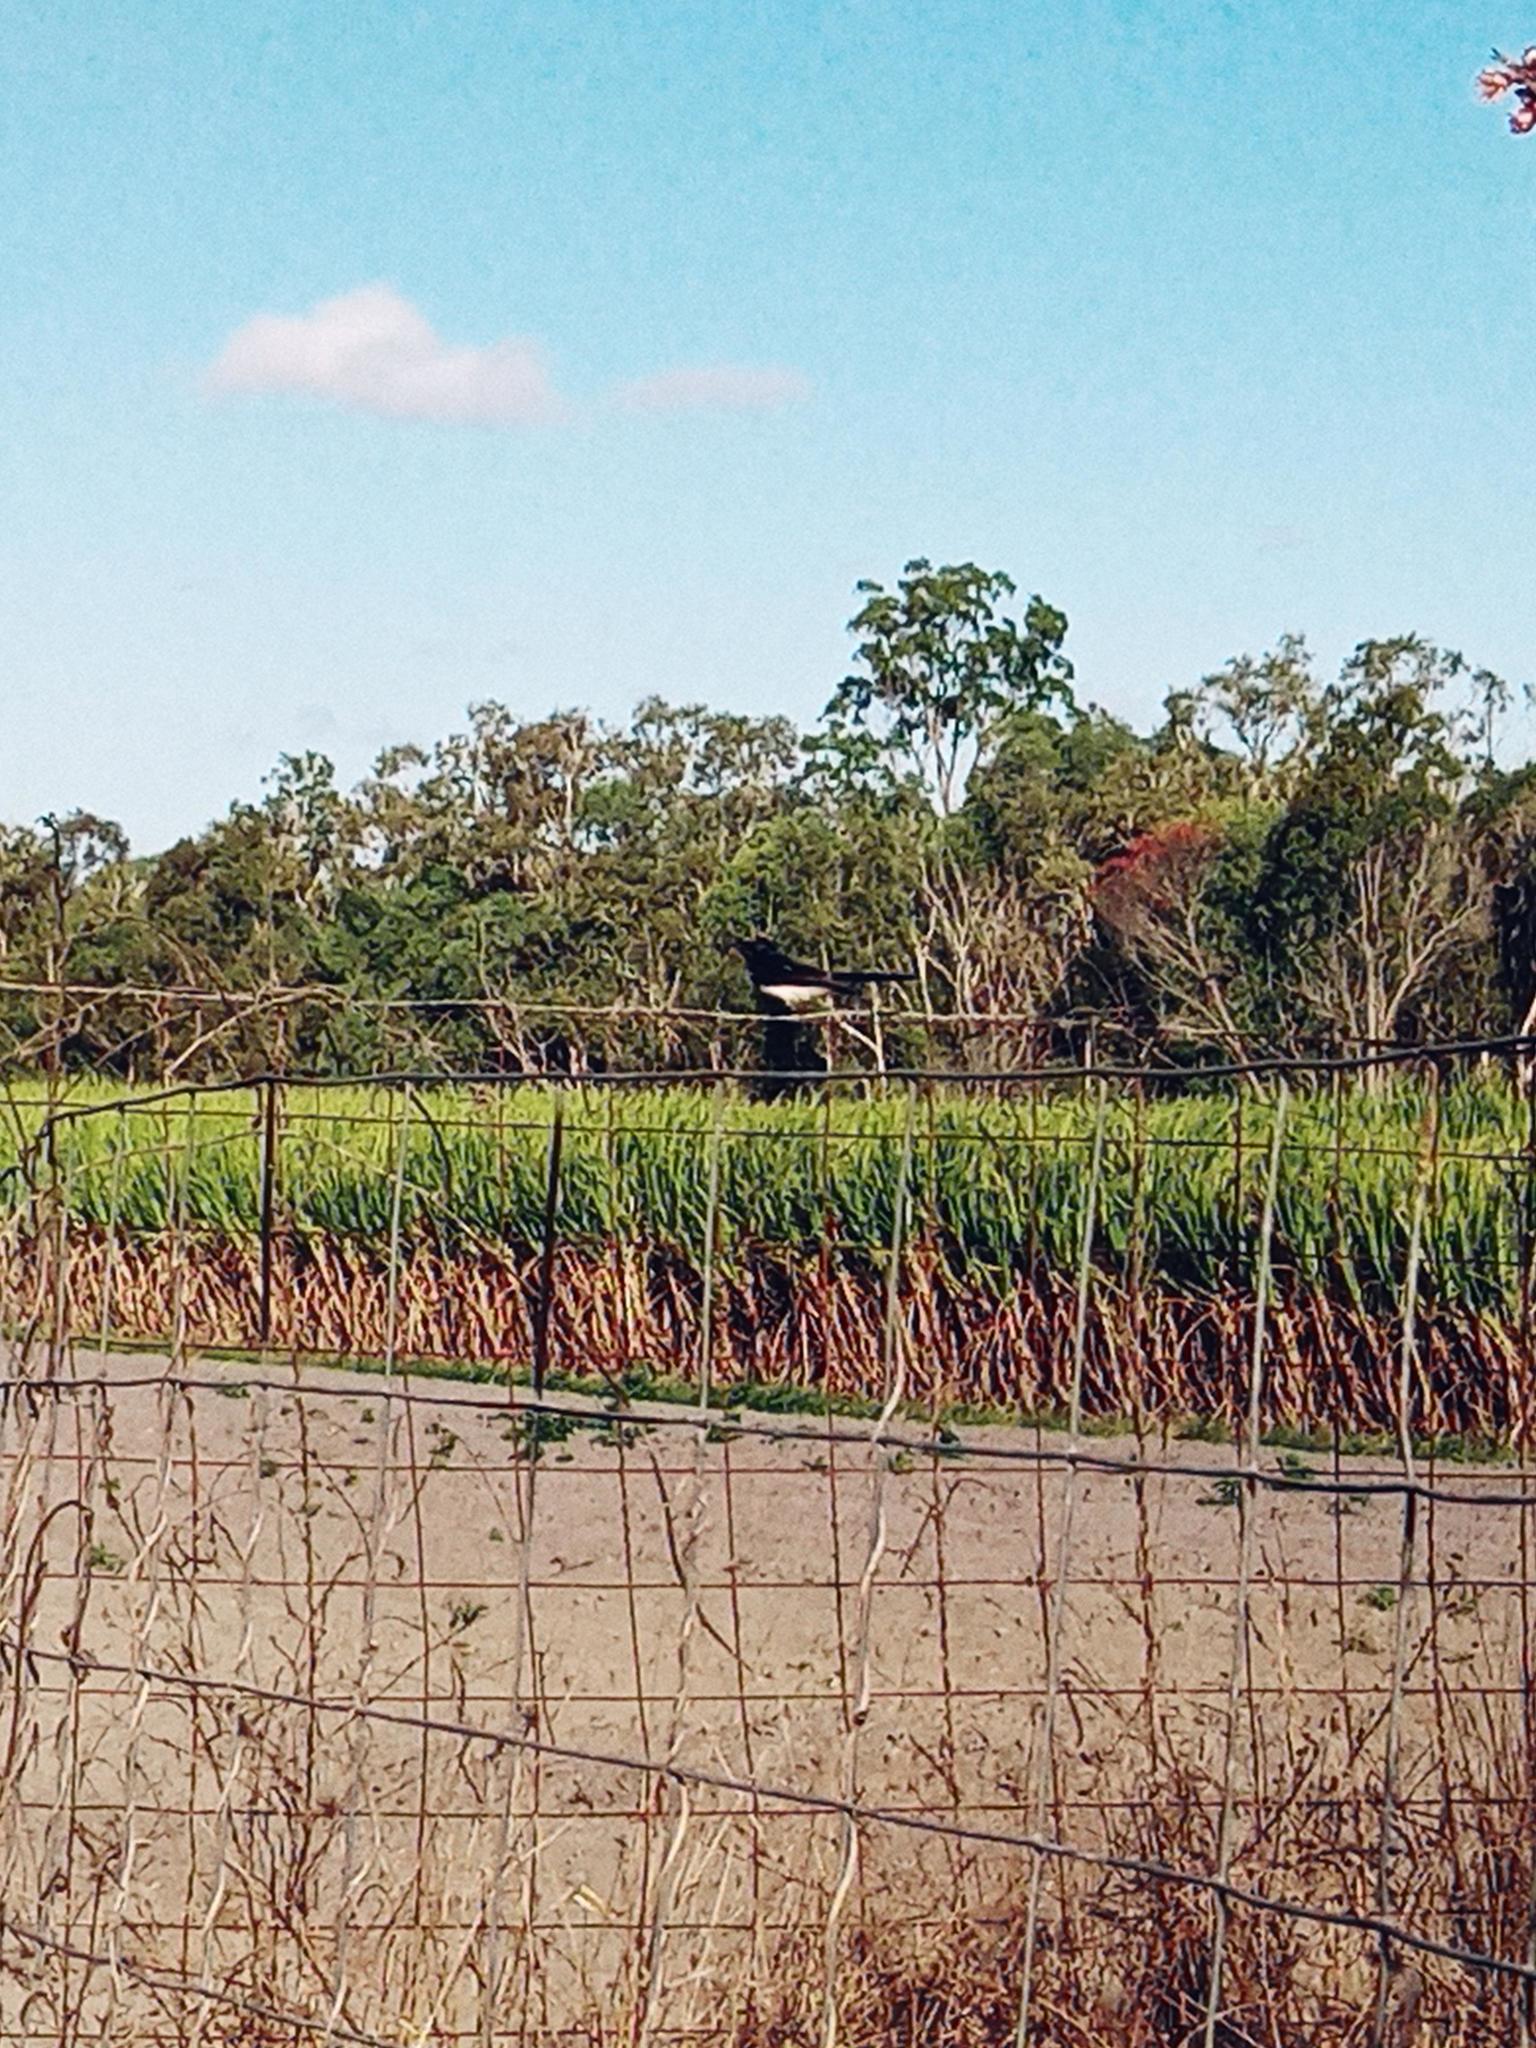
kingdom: Animalia
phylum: Chordata
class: Aves
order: Passeriformes
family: Rhipiduridae
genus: Rhipidura
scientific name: Rhipidura leucophrys
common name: Willie wagtail
